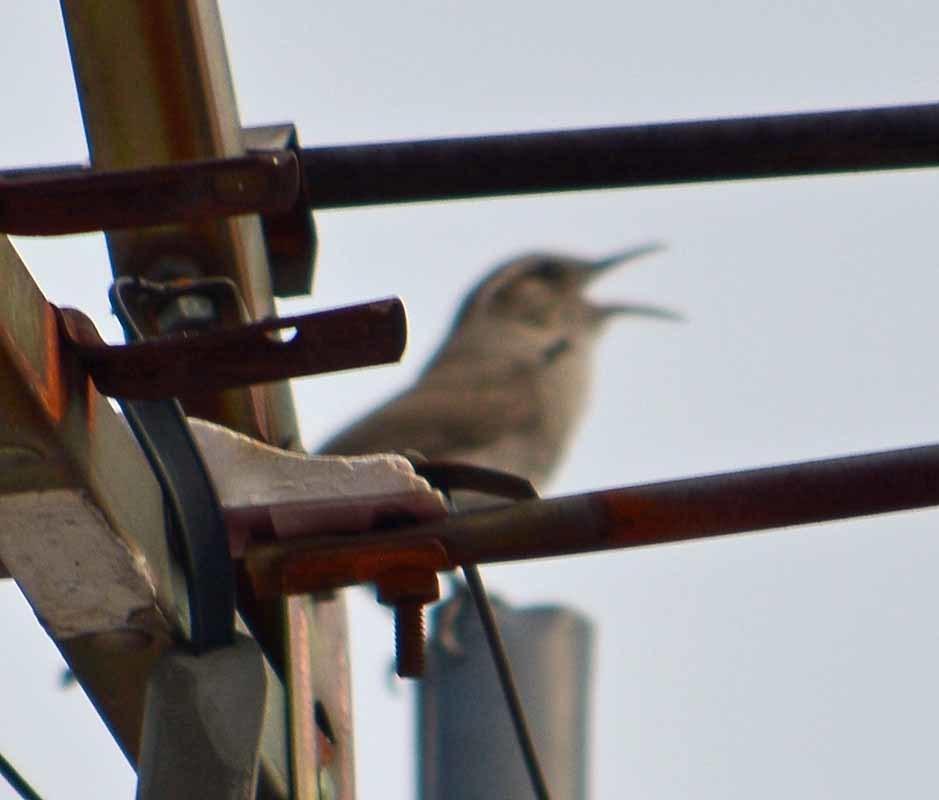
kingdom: Animalia
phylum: Chordata
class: Aves
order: Passeriformes
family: Troglodytidae
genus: Thryomanes
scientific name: Thryomanes bewickii
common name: Bewick's wren
